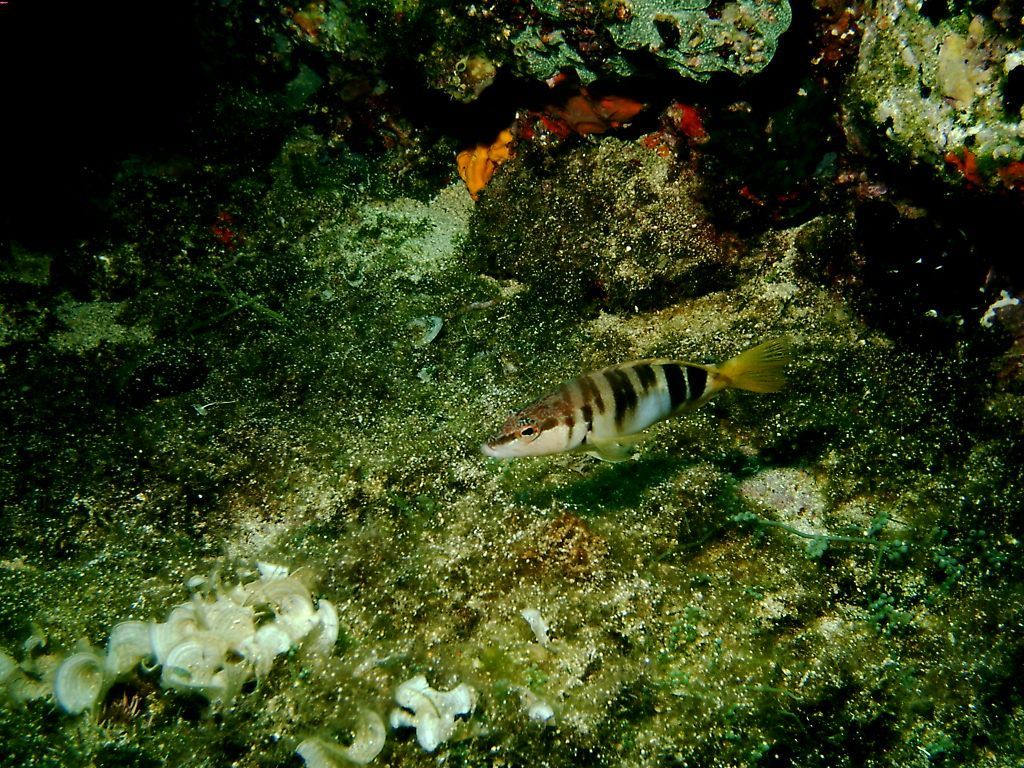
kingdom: Animalia
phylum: Chordata
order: Perciformes
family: Serranidae
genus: Serranus
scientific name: Serranus scriba
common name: Painted comber
